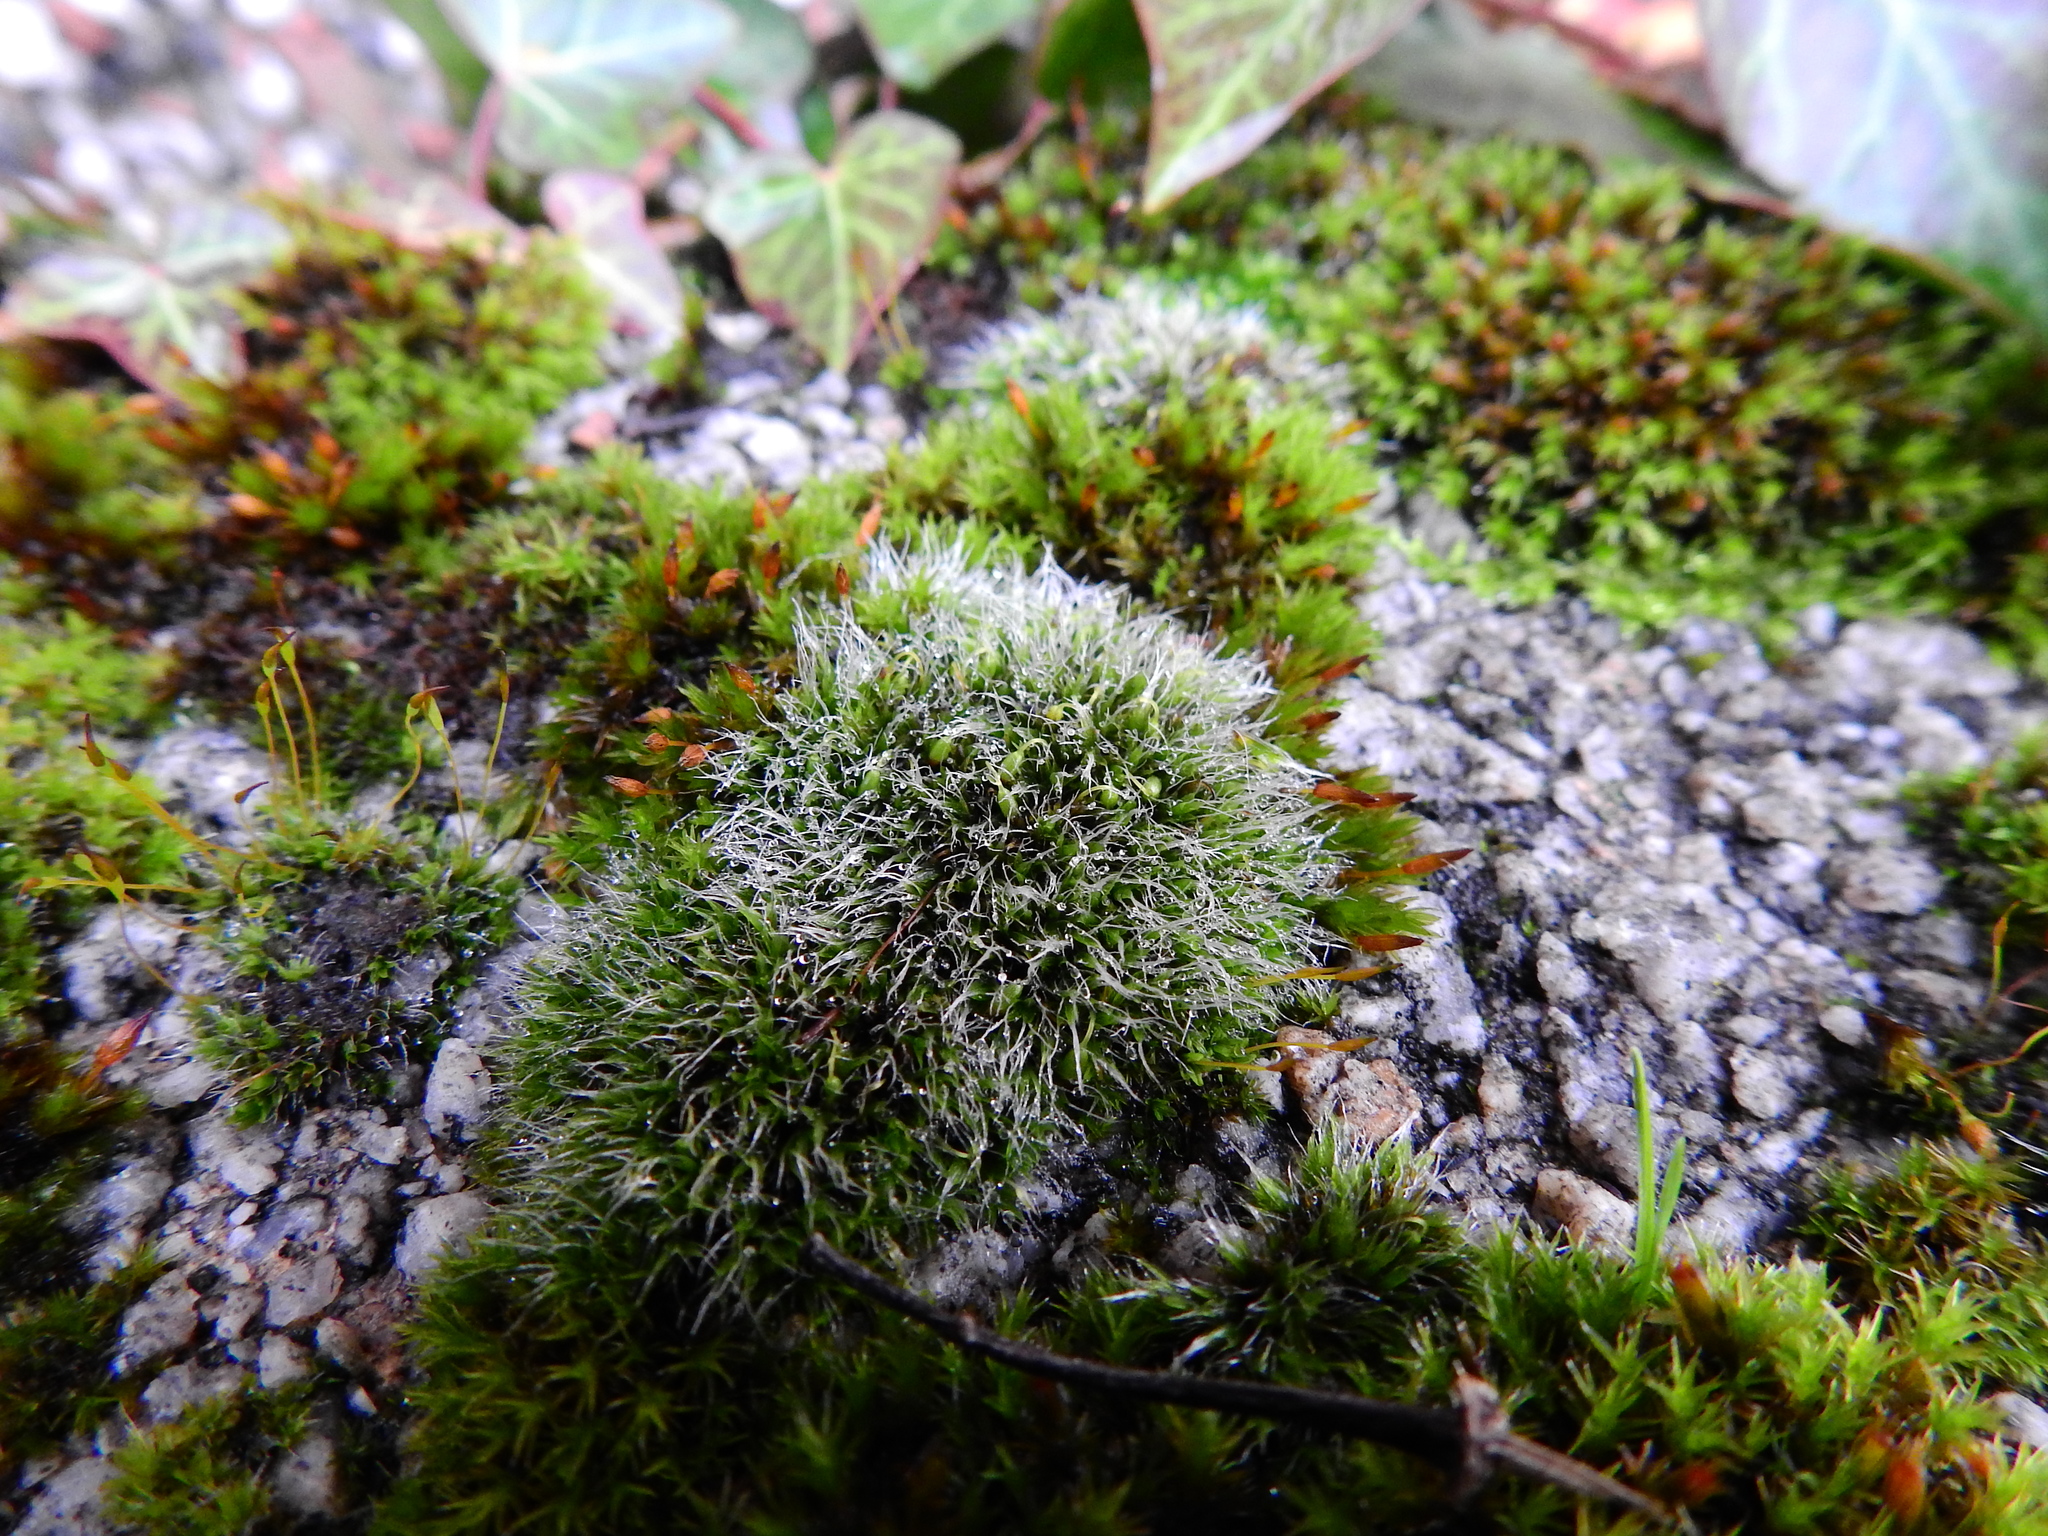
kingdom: Plantae
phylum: Bryophyta
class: Bryopsida
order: Grimmiales
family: Grimmiaceae
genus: Grimmia
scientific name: Grimmia pulvinata
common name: Grey-cushioned grimmia
